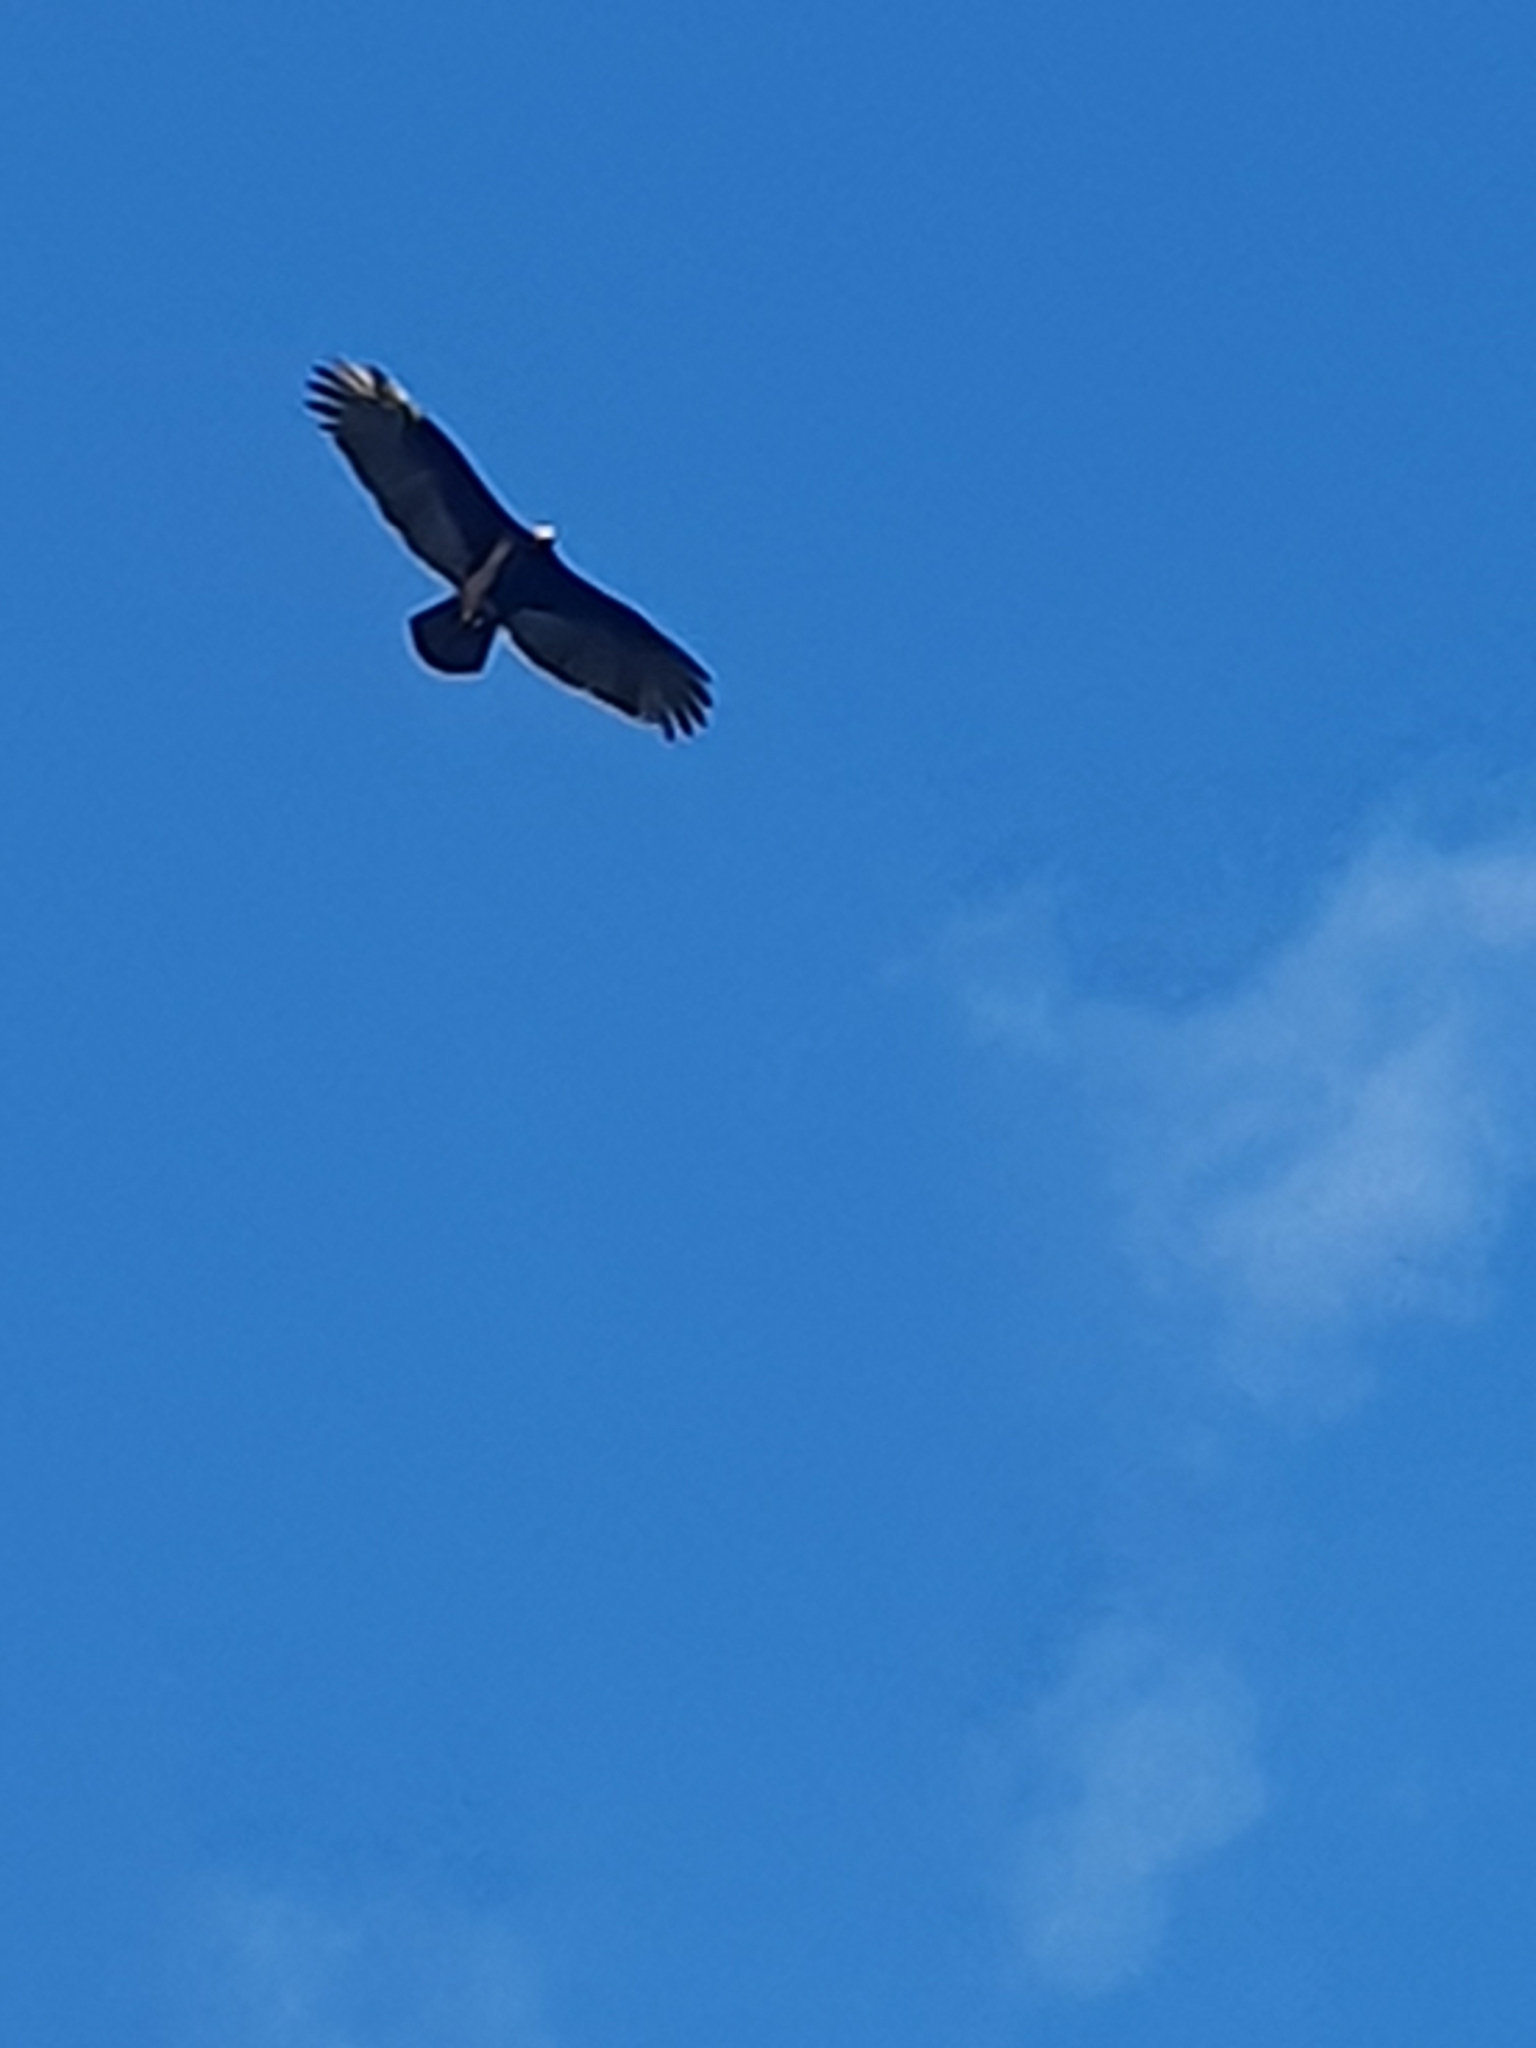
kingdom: Animalia
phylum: Chordata
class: Aves
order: Accipitriformes
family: Cathartidae
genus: Cathartes
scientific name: Cathartes aura
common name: Turkey vulture
